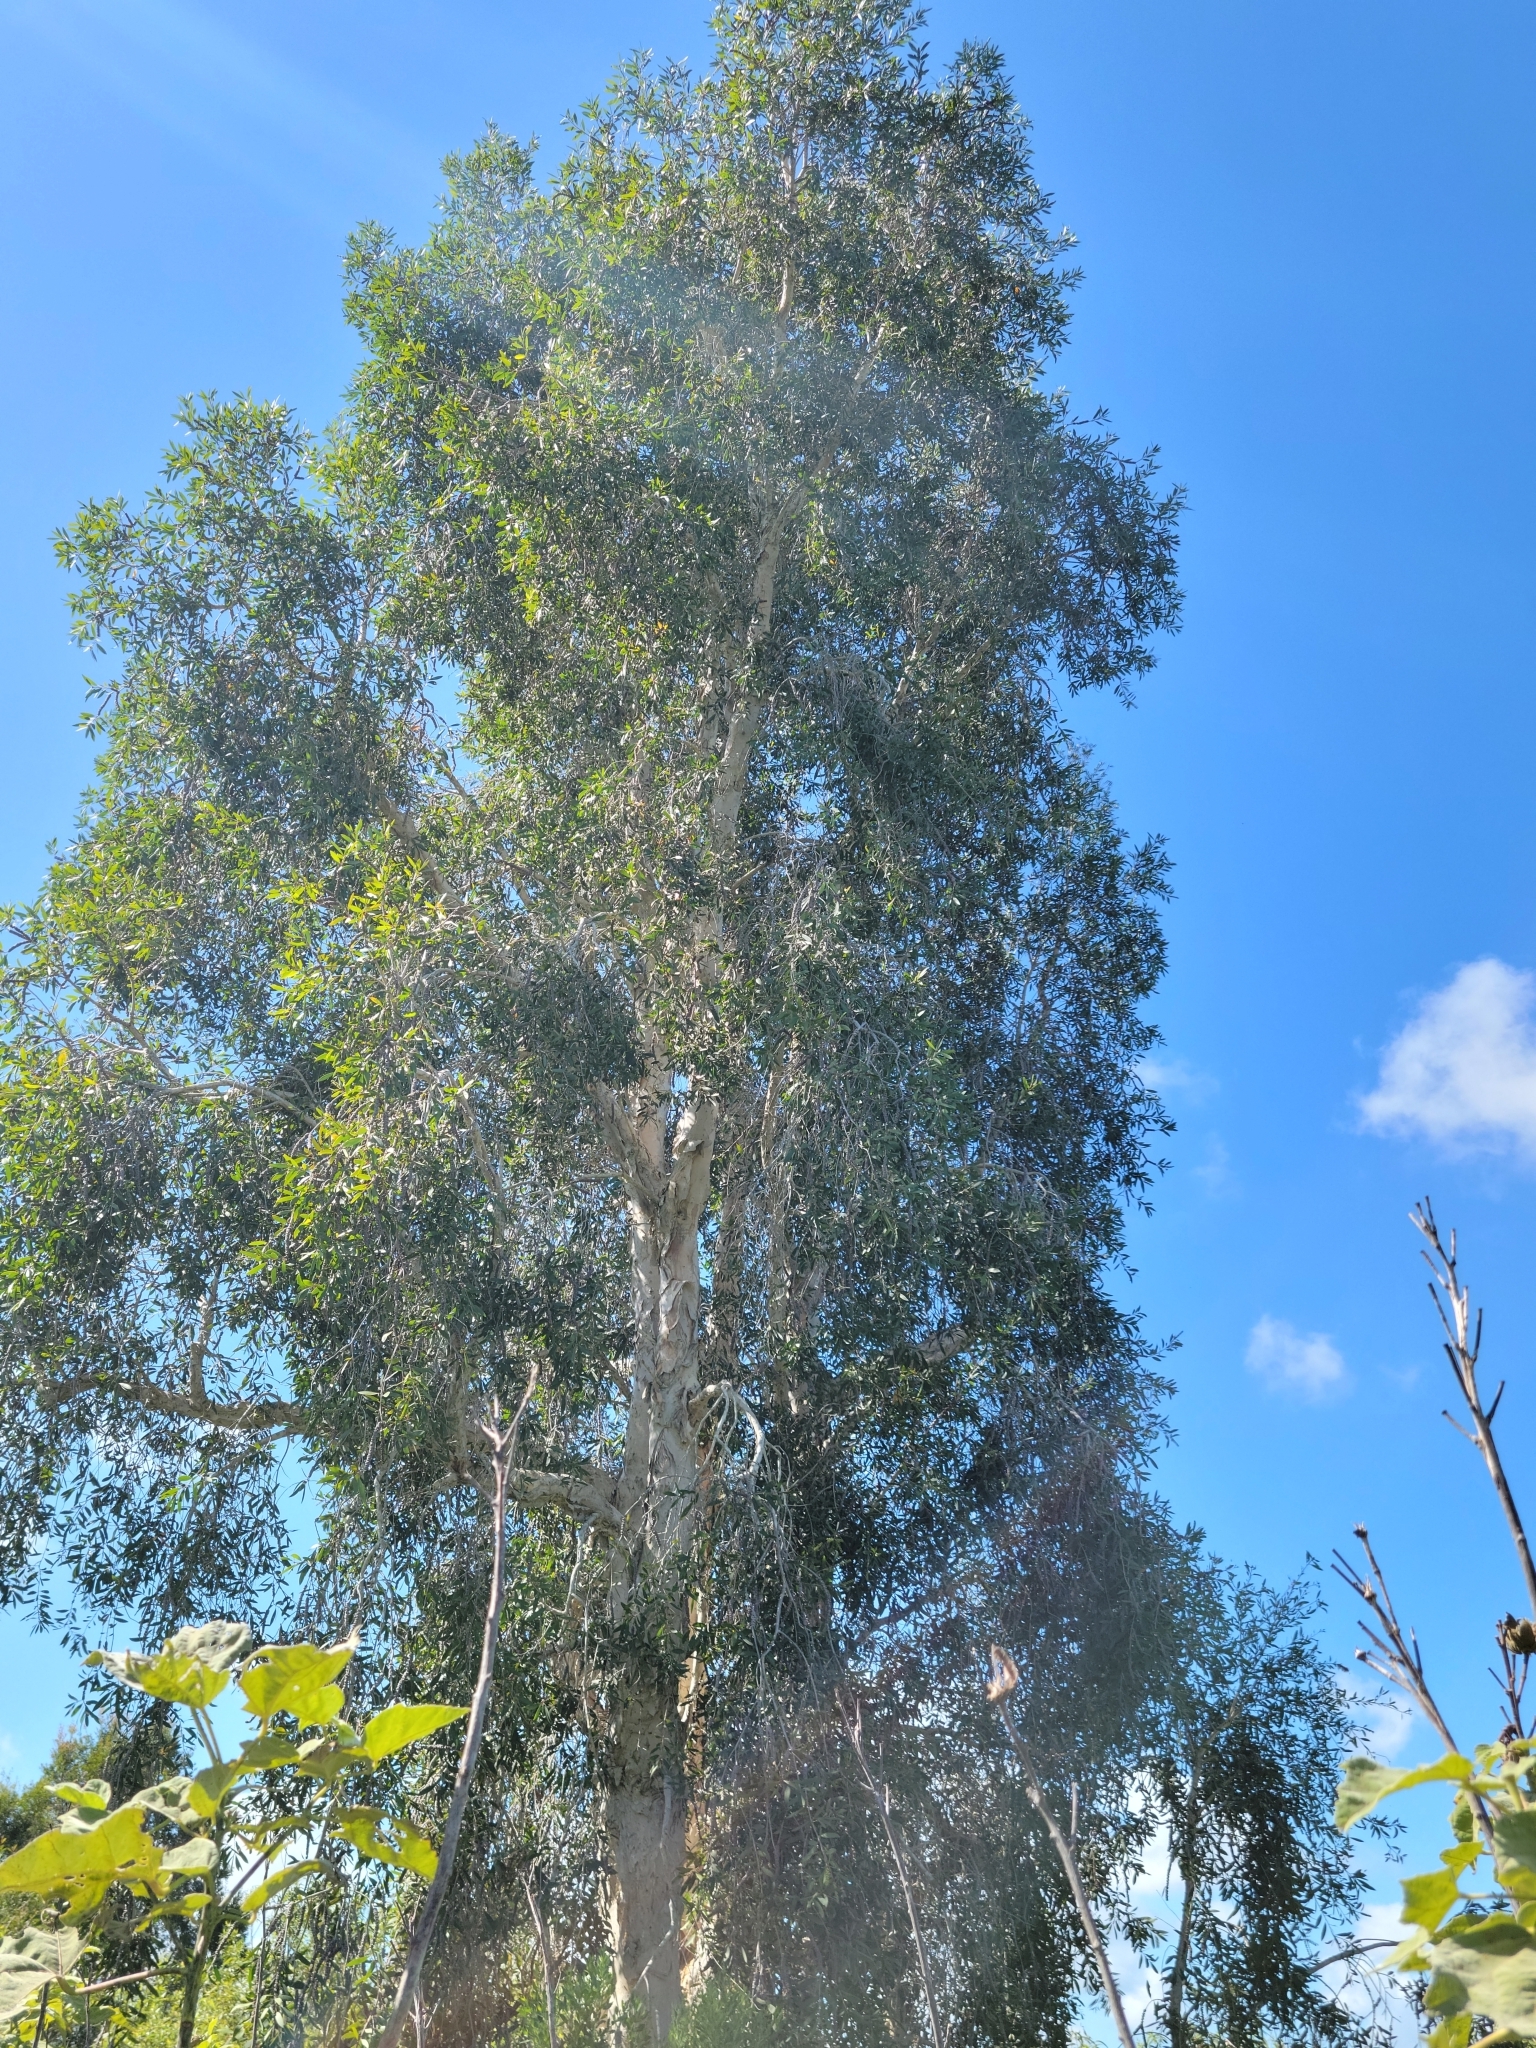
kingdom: Plantae
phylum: Tracheophyta
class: Magnoliopsida
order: Myrtales
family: Myrtaceae
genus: Melaleuca
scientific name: Melaleuca quinquenervia
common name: Punktree
